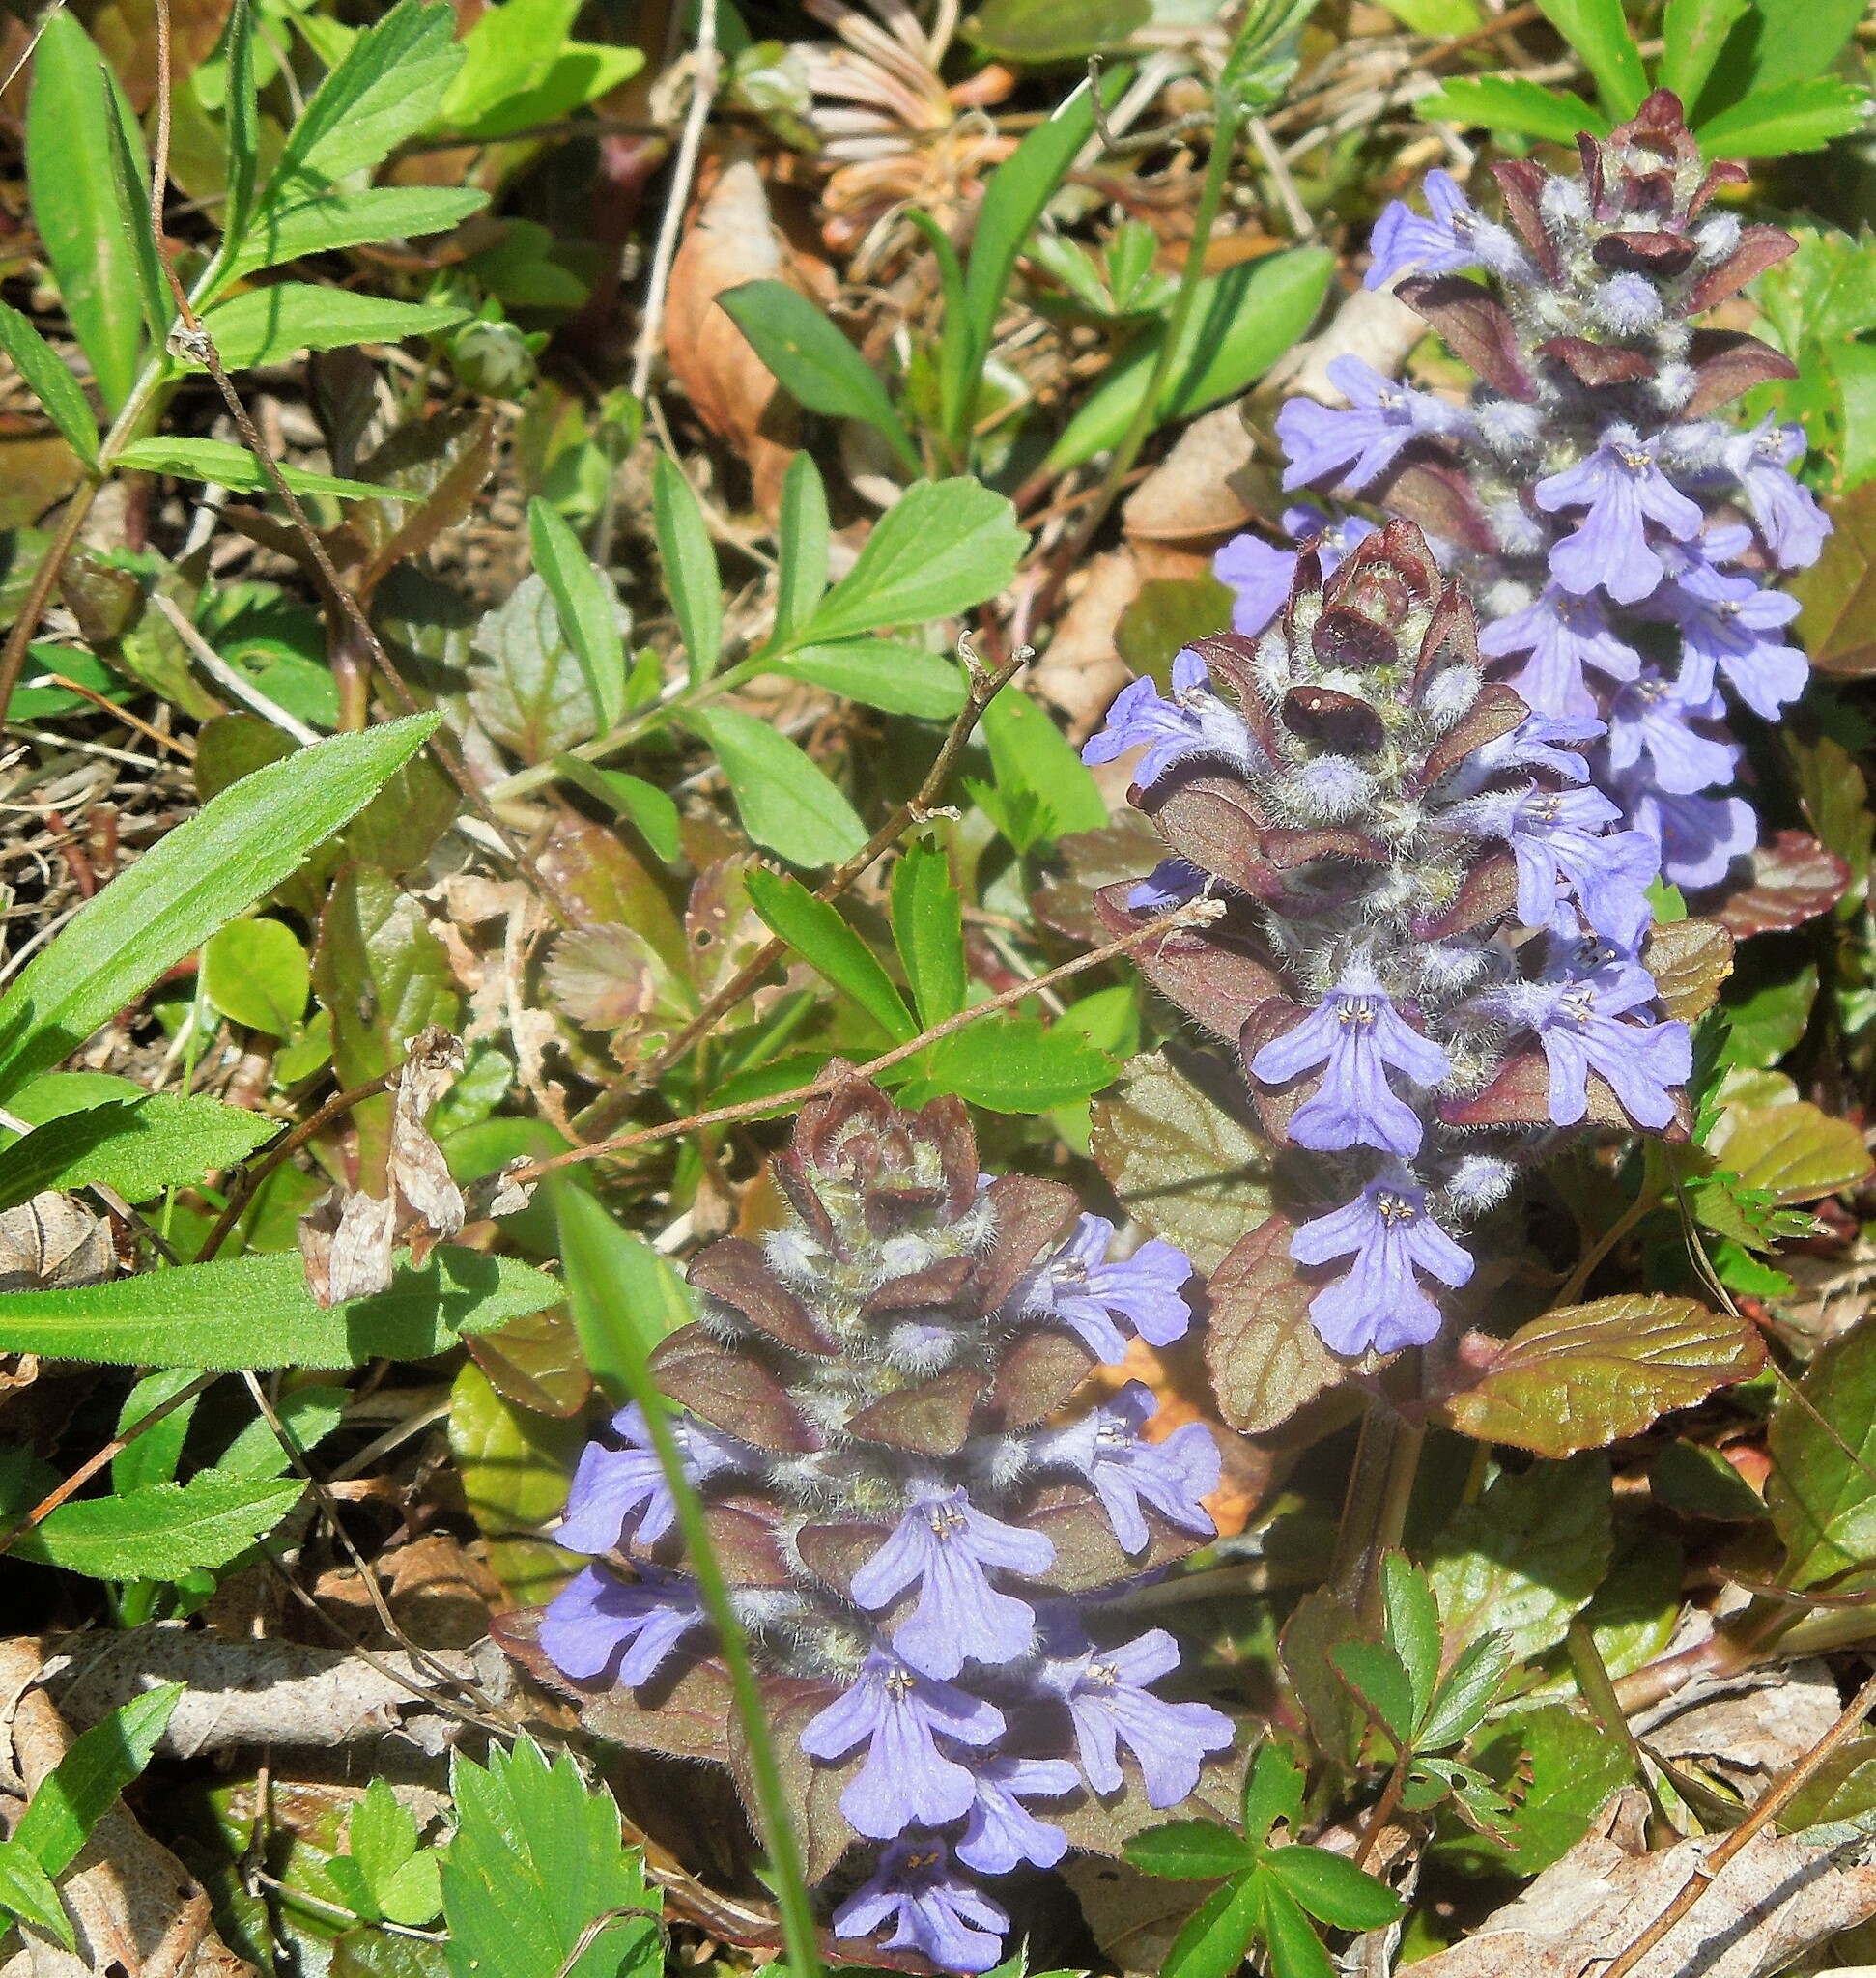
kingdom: Plantae
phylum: Tracheophyta
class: Magnoliopsida
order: Lamiales
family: Lamiaceae
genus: Ajuga
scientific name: Ajuga reptans
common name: Bugle
